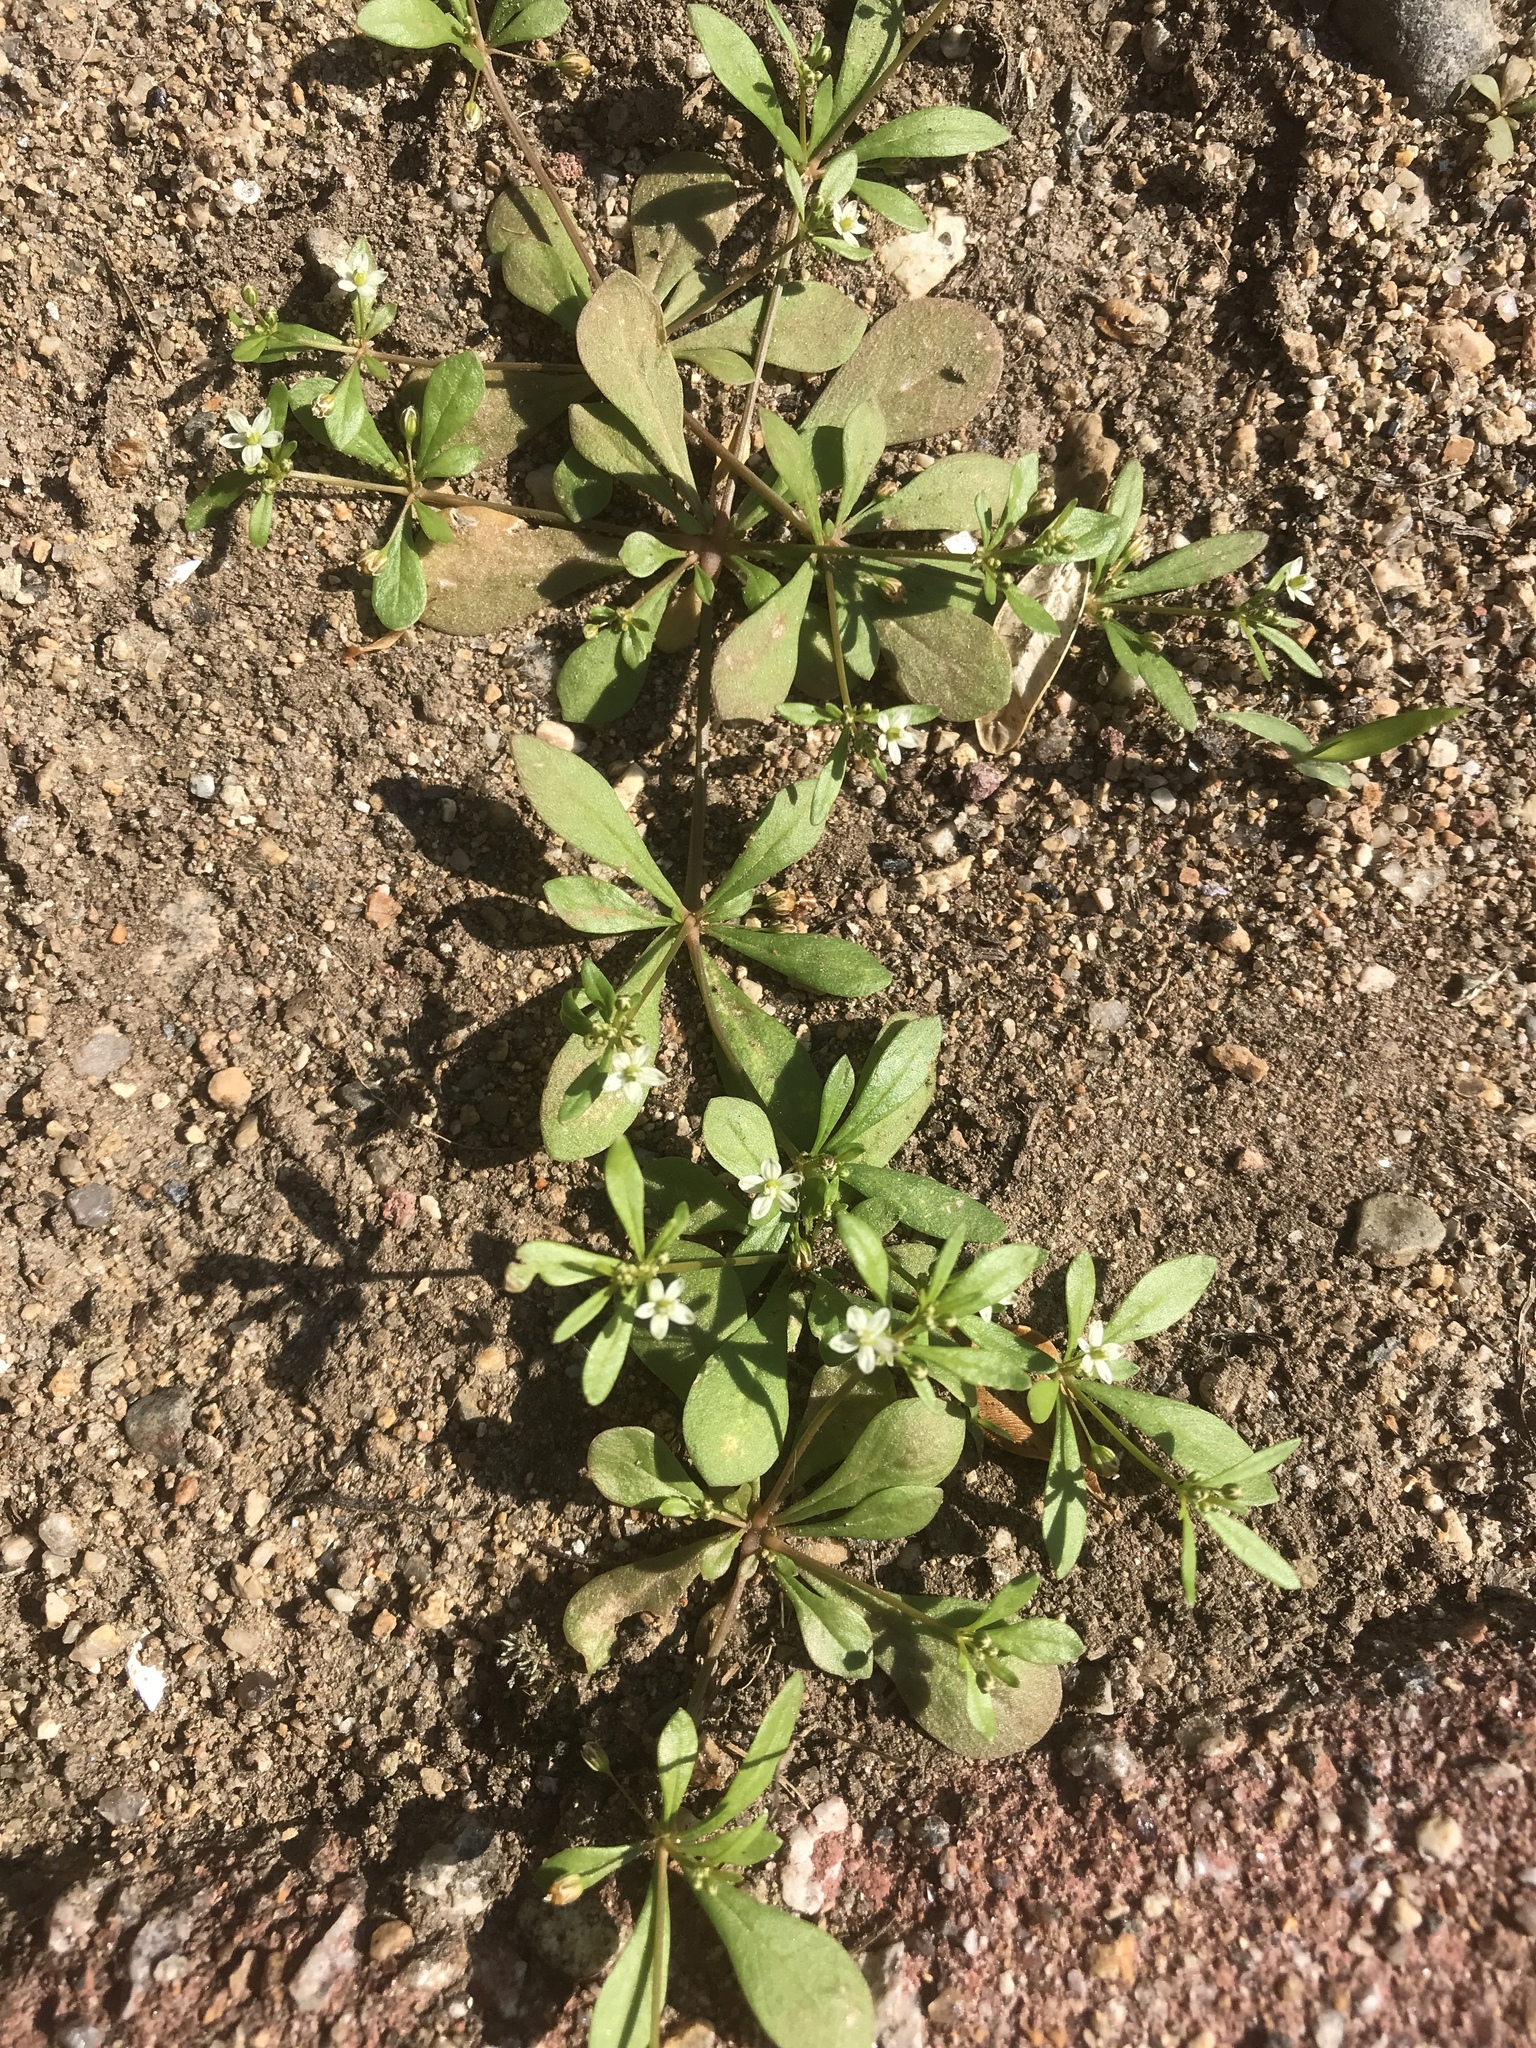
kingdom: Plantae
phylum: Tracheophyta
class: Magnoliopsida
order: Caryophyllales
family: Molluginaceae
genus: Mollugo
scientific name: Mollugo verticillata
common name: Green carpetweed
